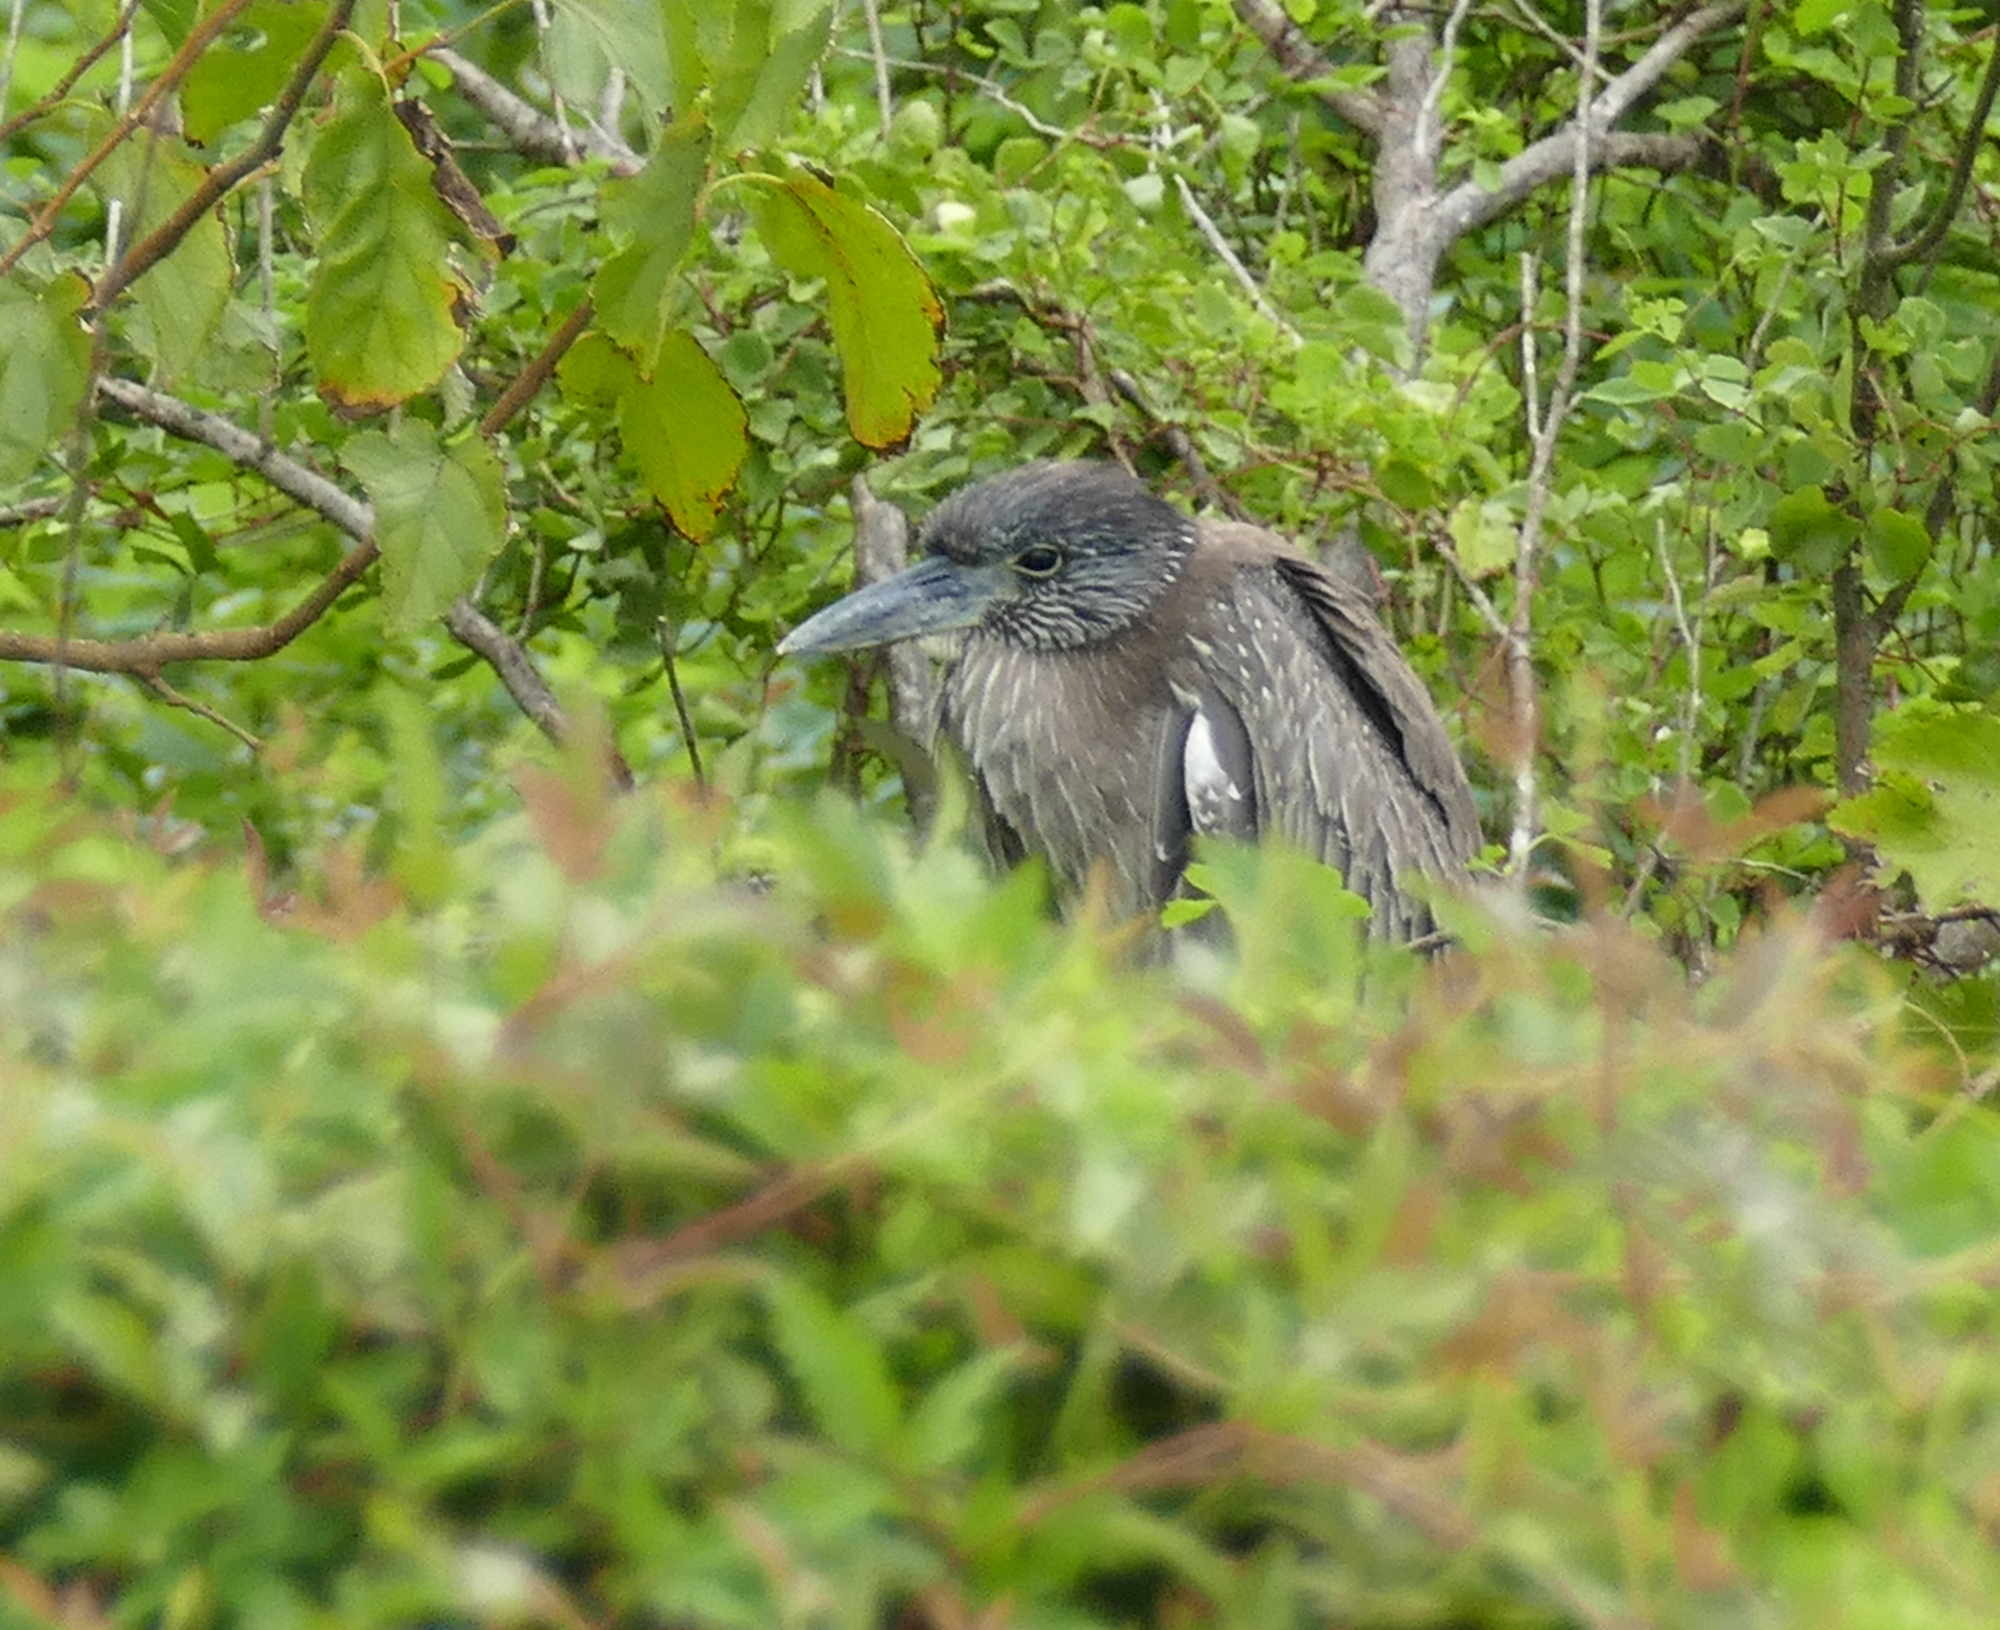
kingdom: Animalia
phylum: Chordata
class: Aves
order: Pelecaniformes
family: Ardeidae
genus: Nyctanassa
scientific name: Nyctanassa violacea
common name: Yellow-crowned night heron
